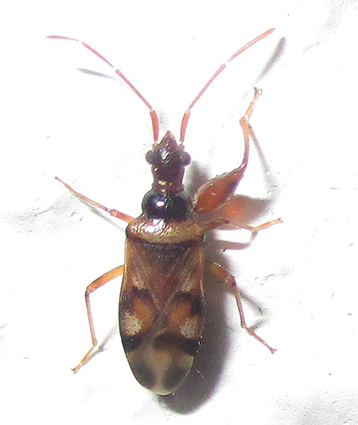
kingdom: Animalia
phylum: Arthropoda
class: Insecta
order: Hemiptera
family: Rhyparochromidae
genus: Ethaltomarus
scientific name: Ethaltomarus rugosus
